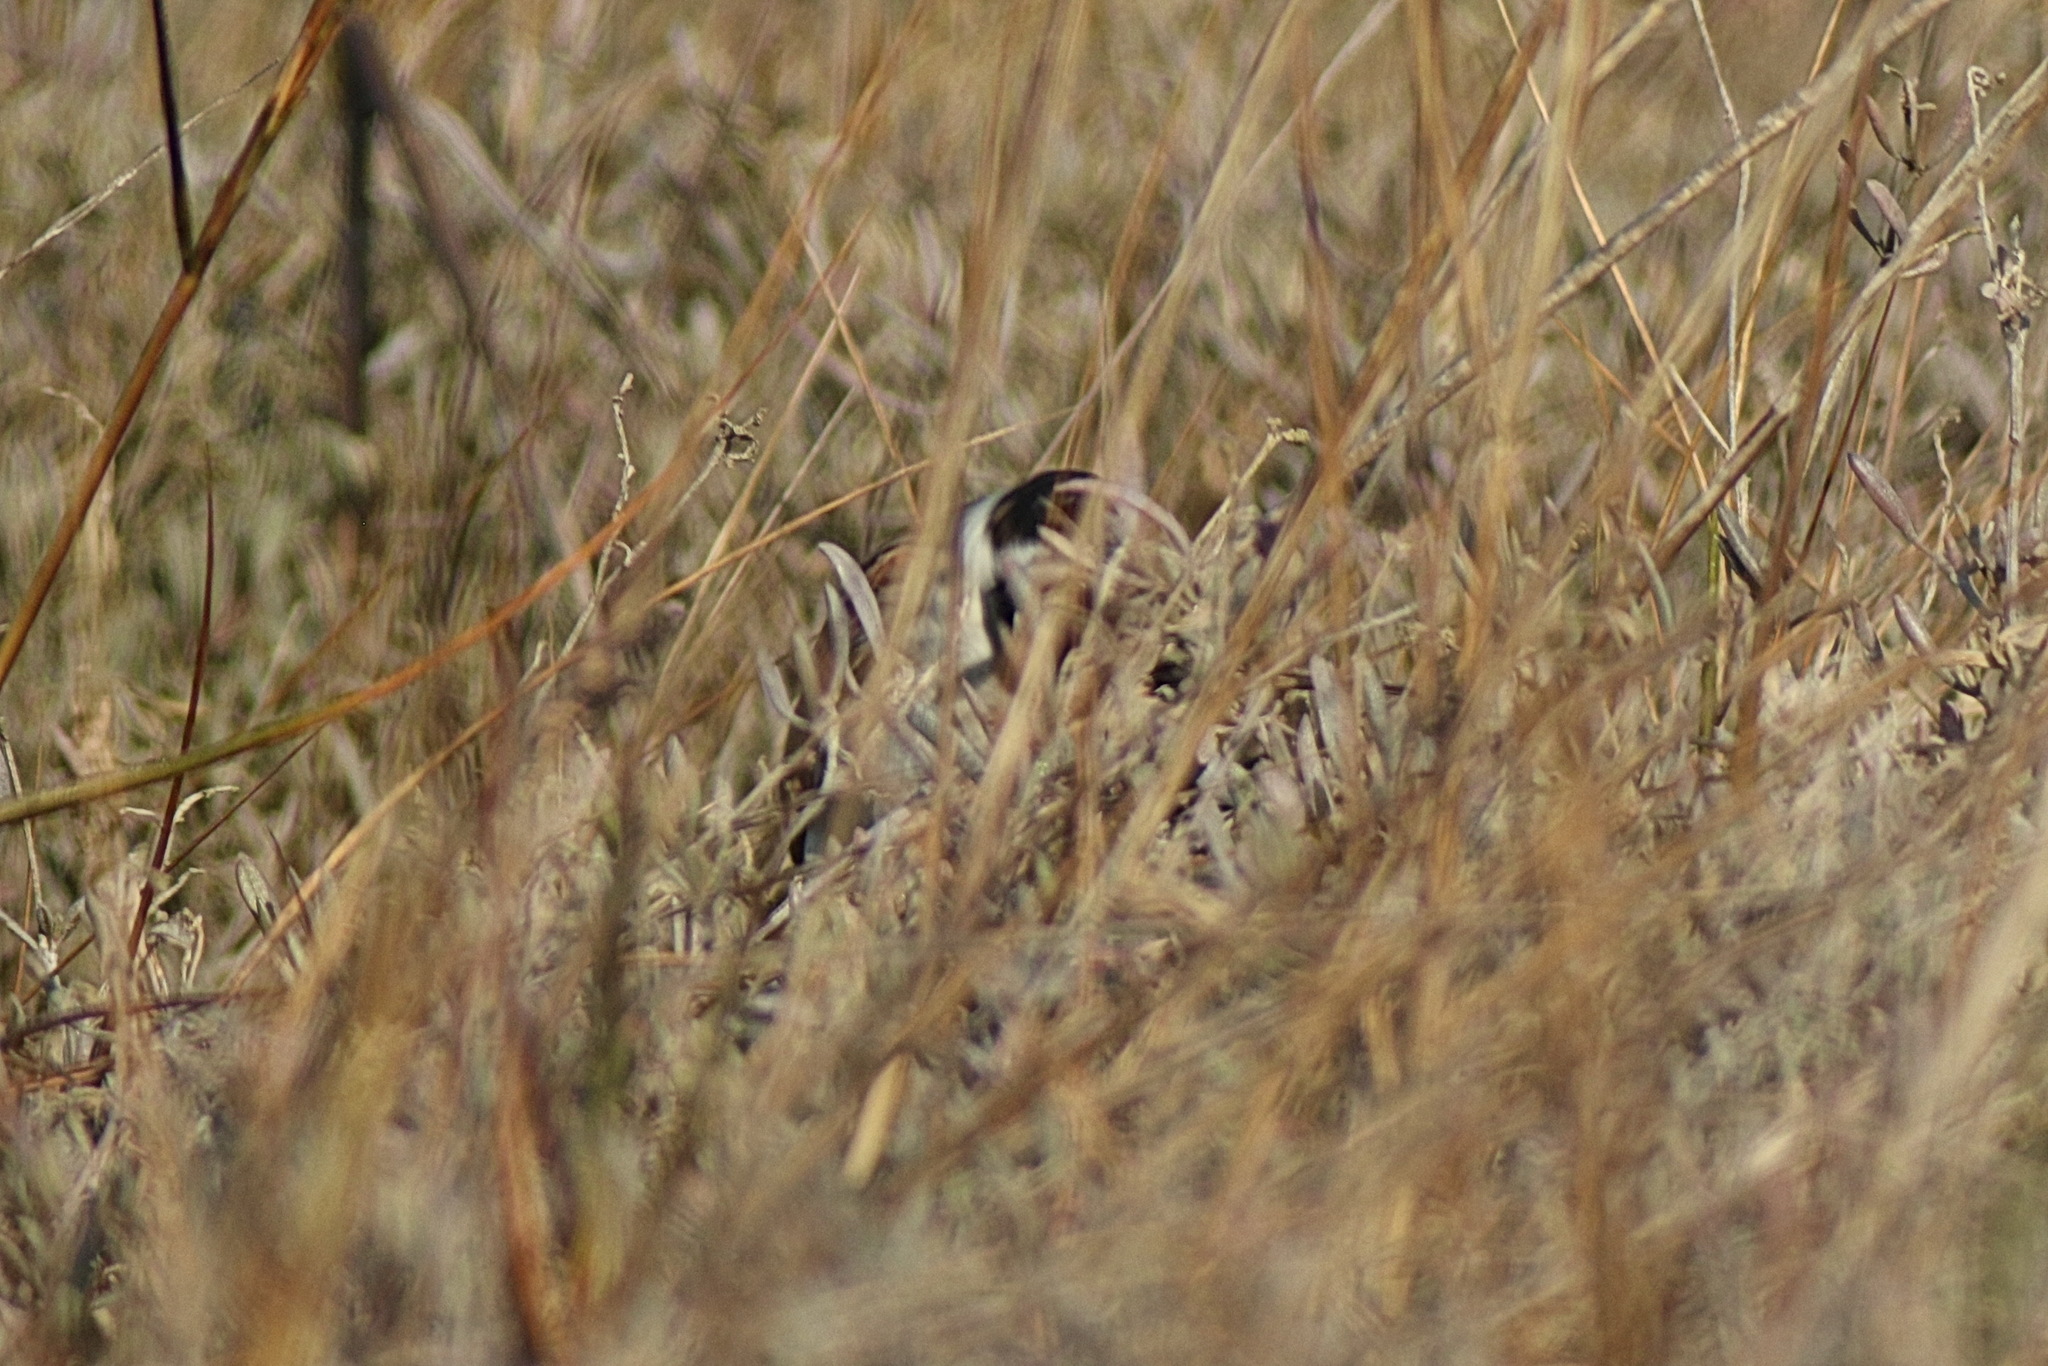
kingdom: Animalia
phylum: Chordata
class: Aves
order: Passeriformes
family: Emberizidae
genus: Emberiza
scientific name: Emberiza schoeniclus
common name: Reed bunting
